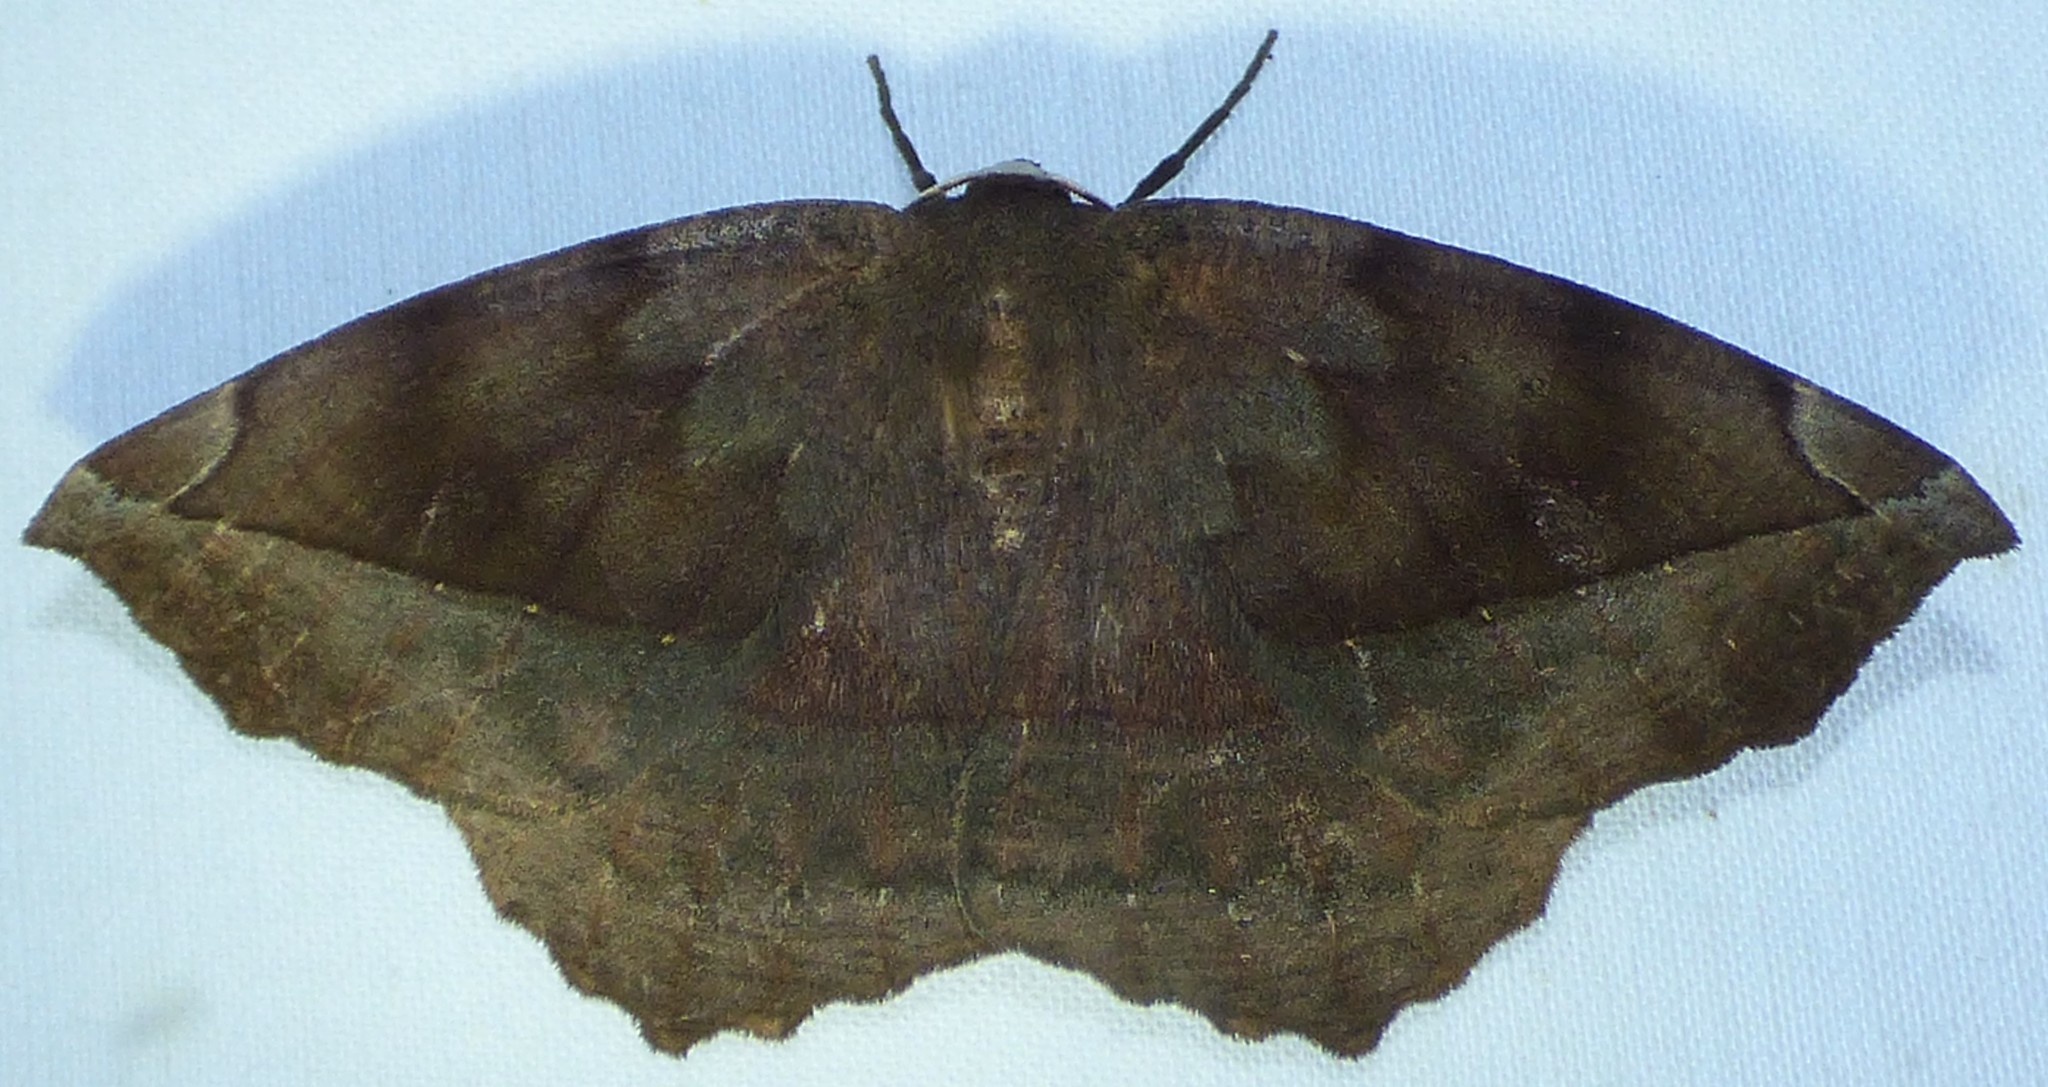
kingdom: Animalia
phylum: Arthropoda
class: Insecta
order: Lepidoptera
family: Geometridae
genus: Eutrapela
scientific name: Eutrapela clemataria
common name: Curved-toothed geometer
